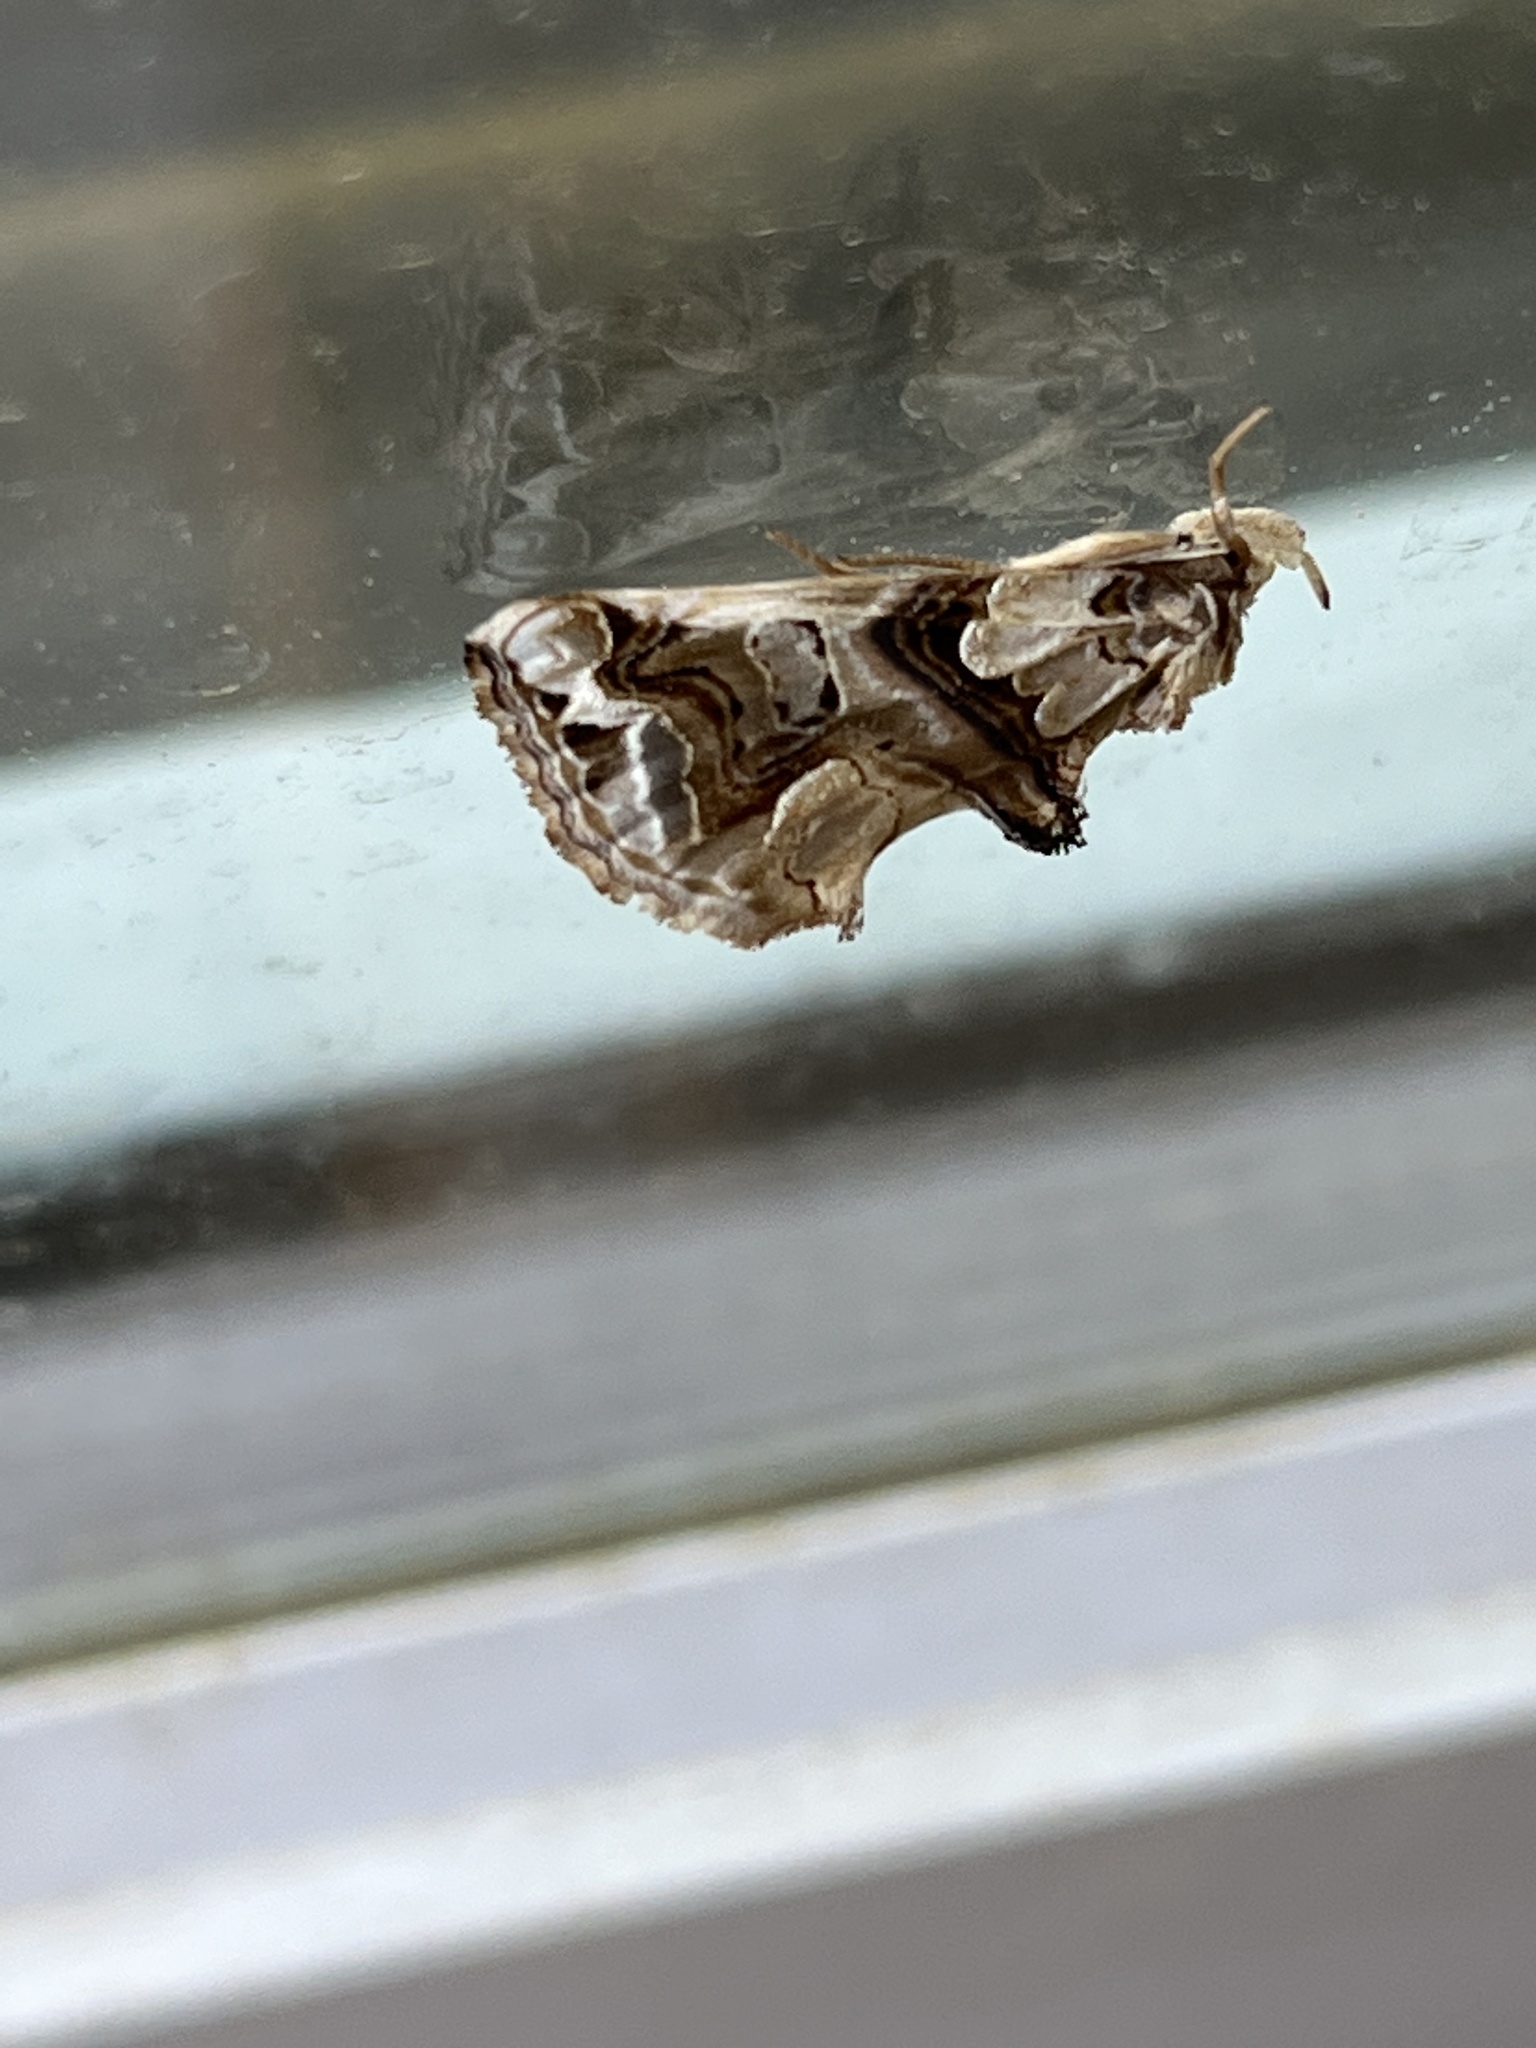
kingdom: Animalia
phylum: Arthropoda
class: Insecta
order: Lepidoptera
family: Erebidae
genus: Plusiodonta
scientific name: Plusiodonta compressipalpis
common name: Moonseed moth
